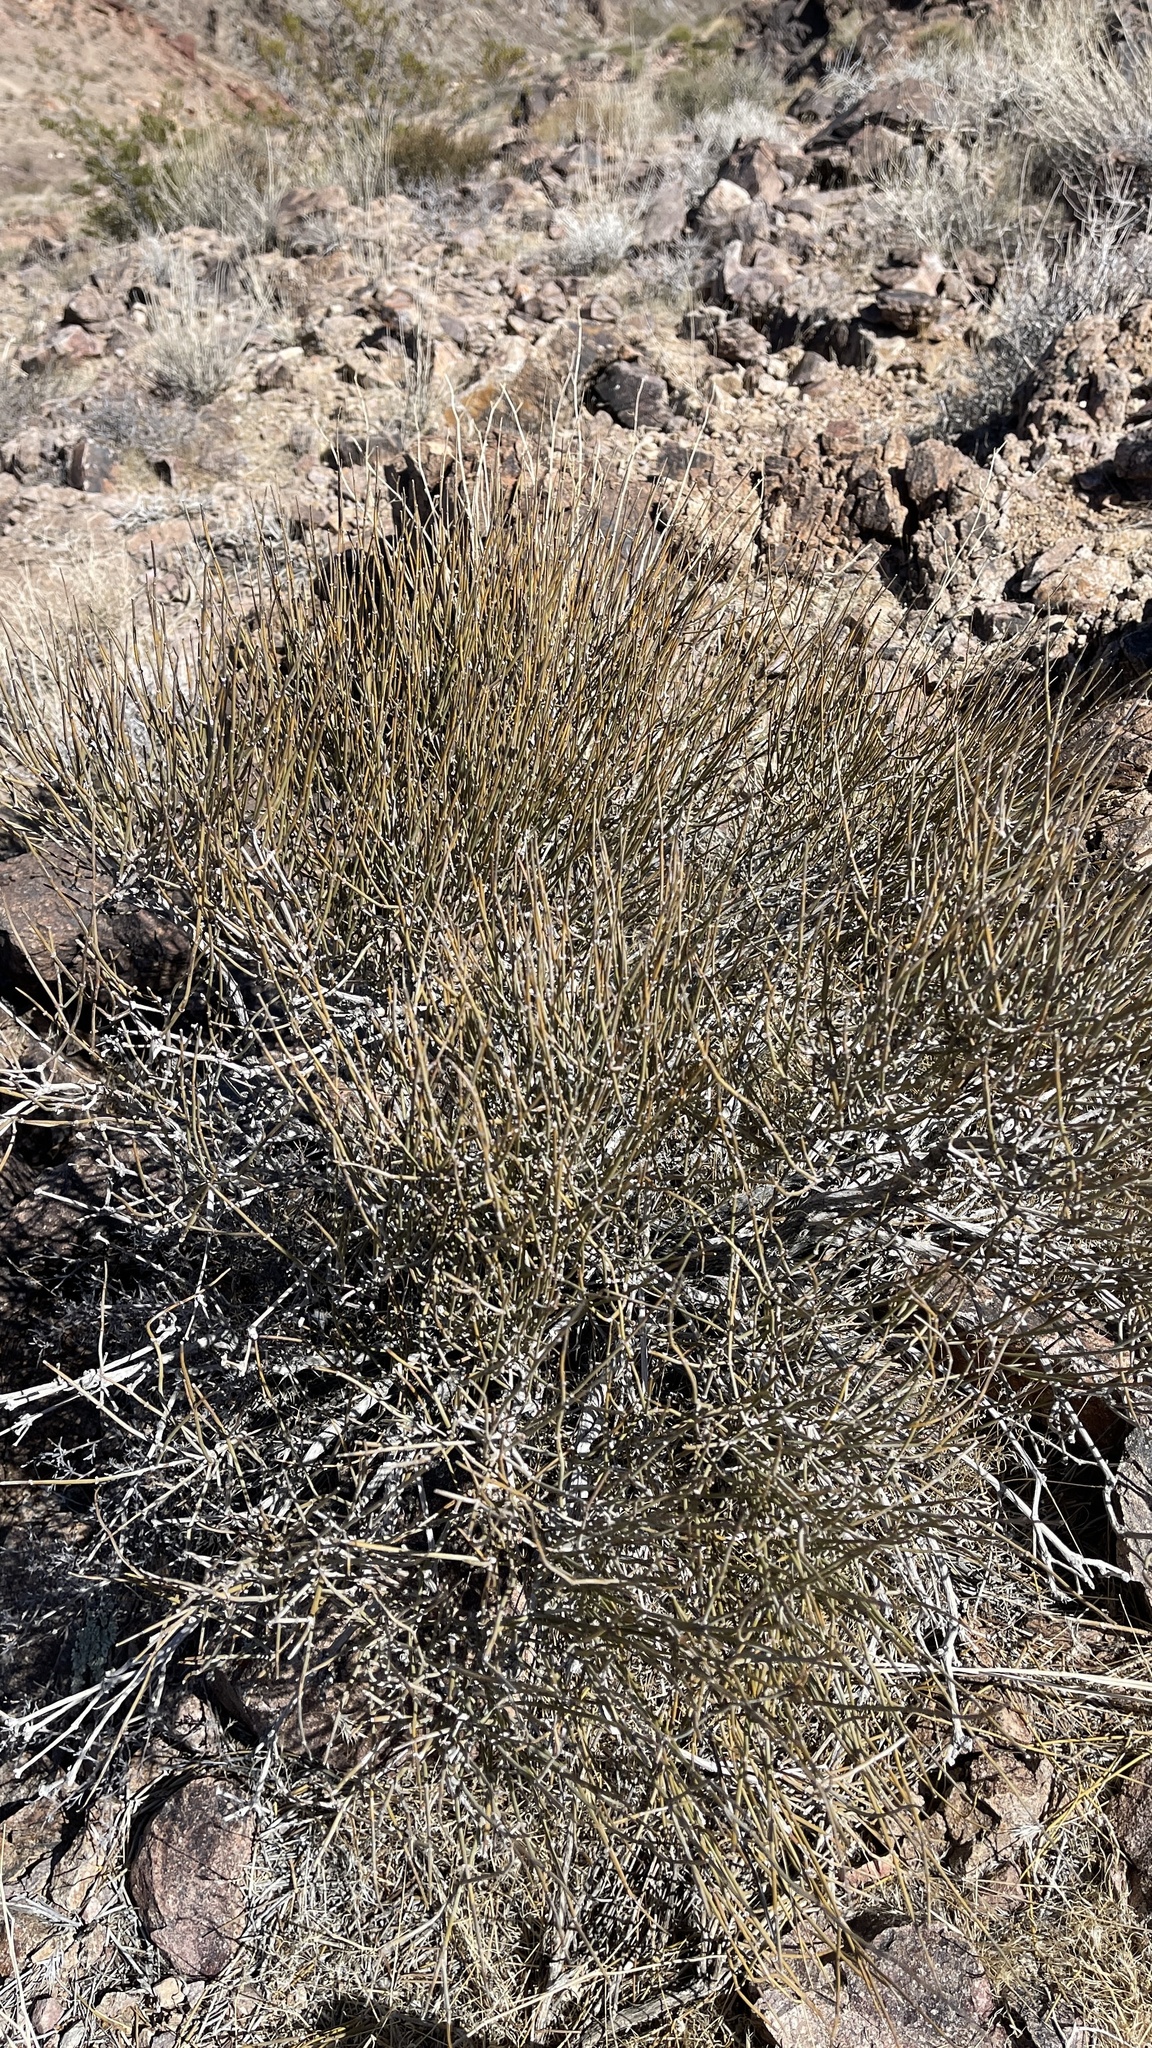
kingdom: Plantae
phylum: Tracheophyta
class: Gnetopsida
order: Ephedrales
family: Ephedraceae
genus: Ephedra
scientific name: Ephedra nevadensis
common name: Gray ephedra
